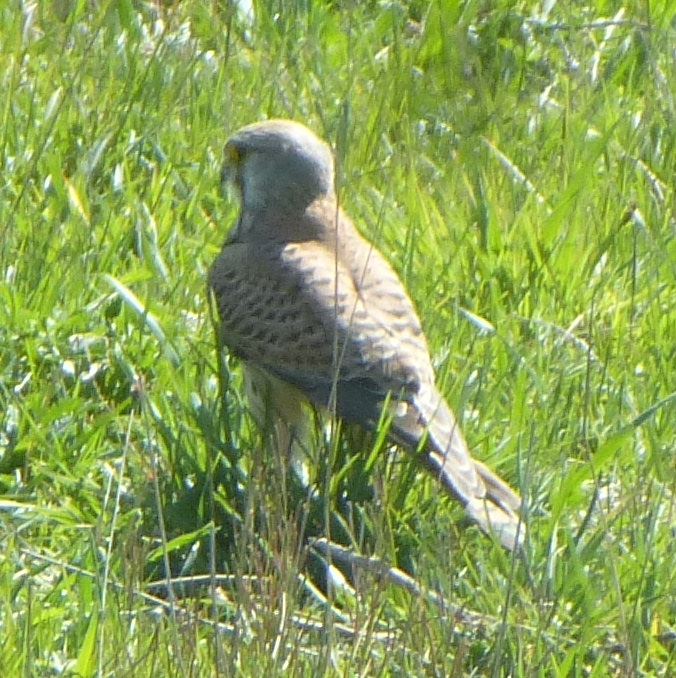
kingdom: Animalia
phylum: Chordata
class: Aves
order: Falconiformes
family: Falconidae
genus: Falco
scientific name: Falco tinnunculus
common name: Common kestrel
